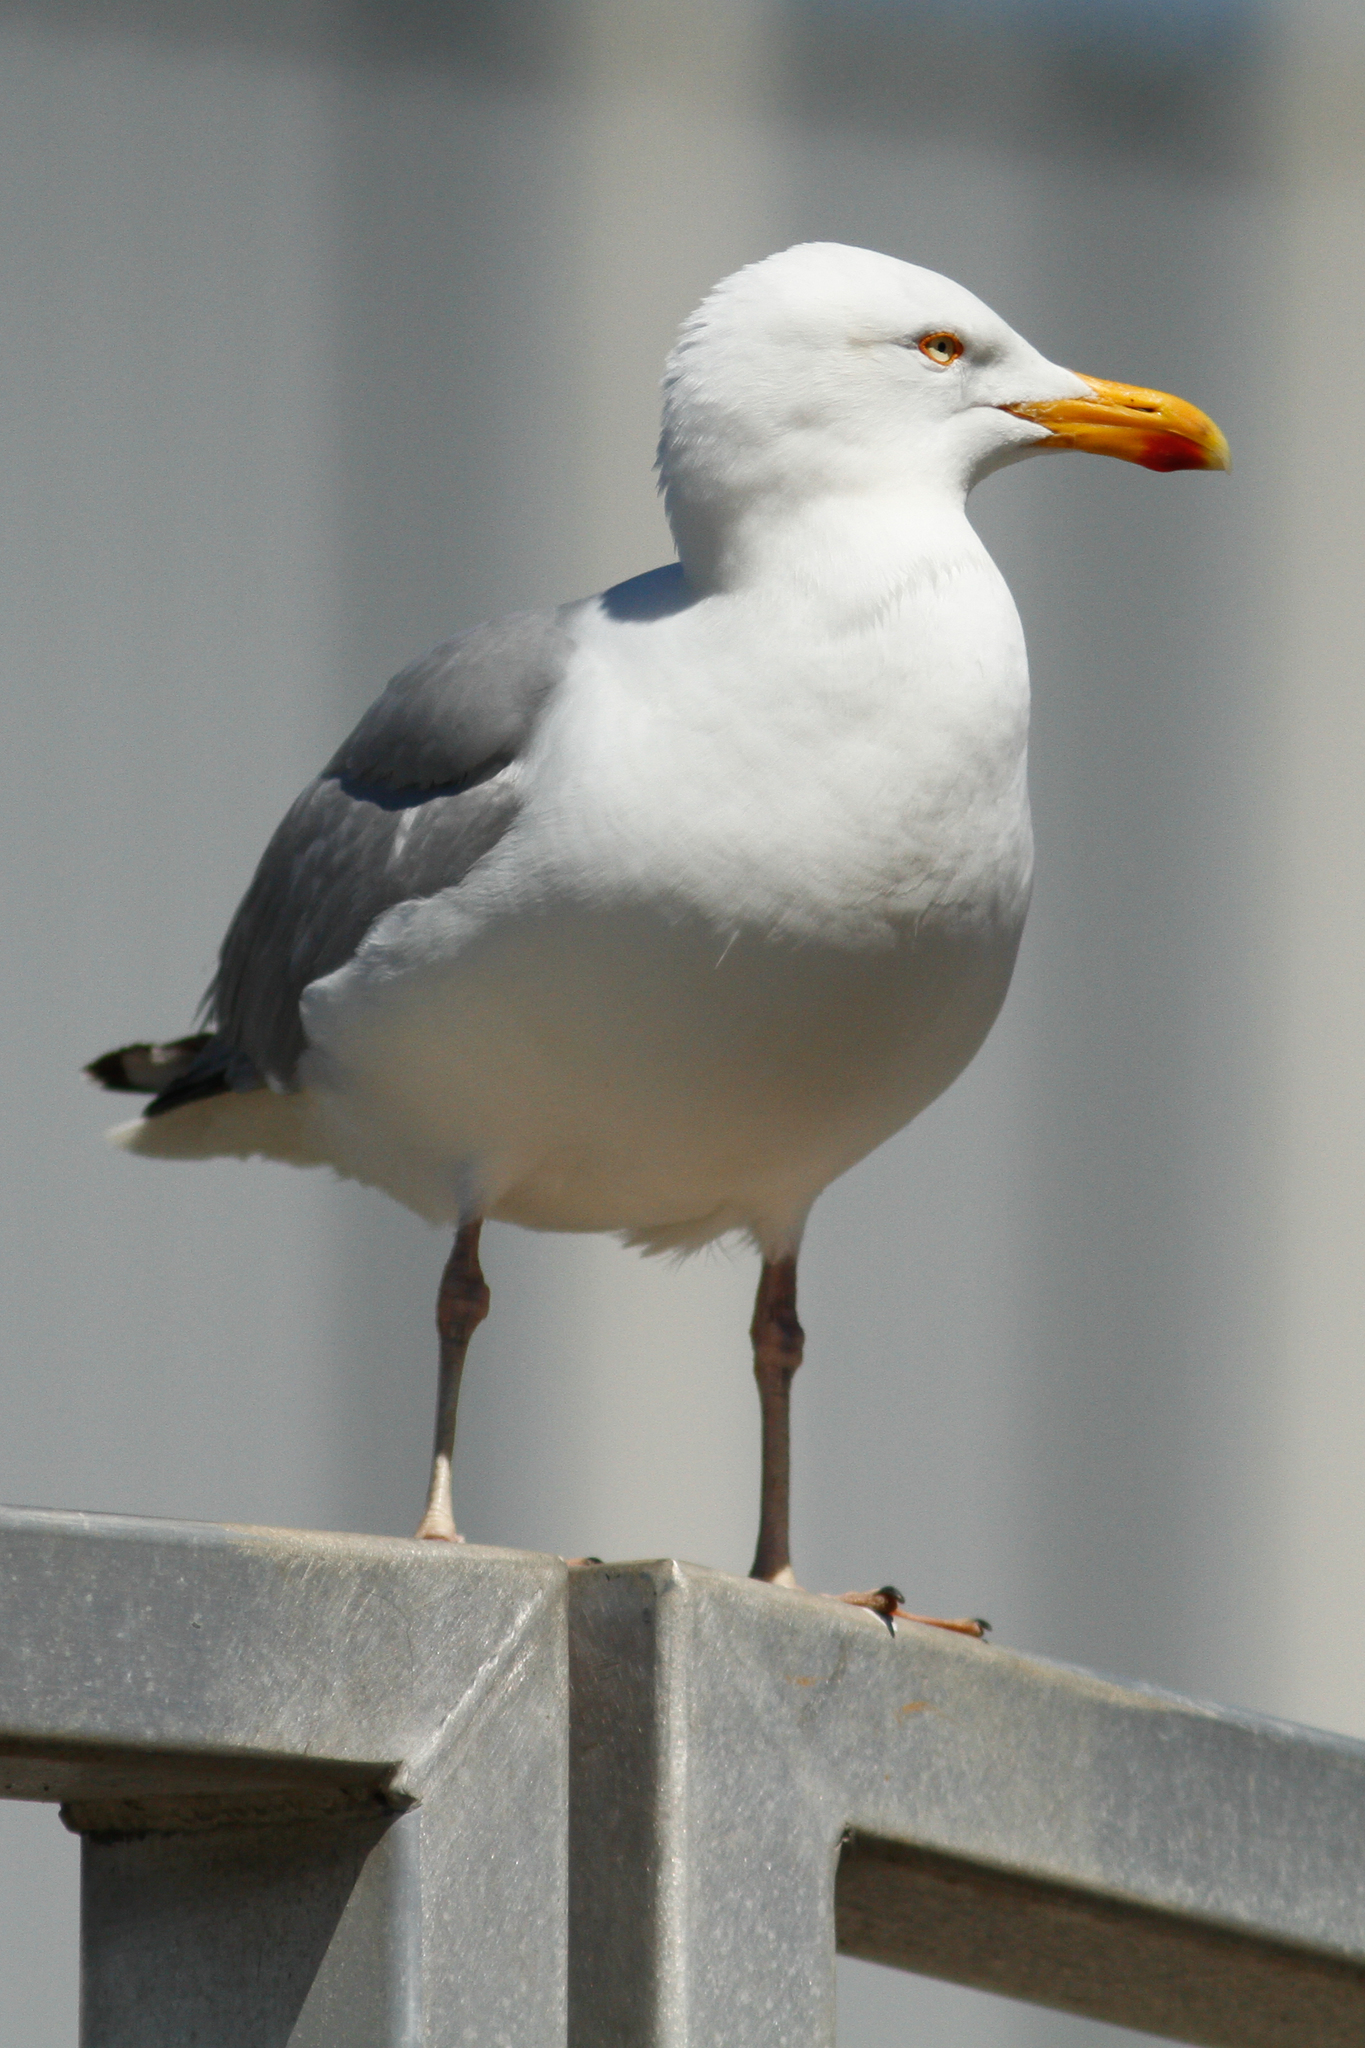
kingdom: Animalia
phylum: Chordata
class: Aves
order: Charadriiformes
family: Laridae
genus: Larus
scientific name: Larus argentatus
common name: Herring gull
